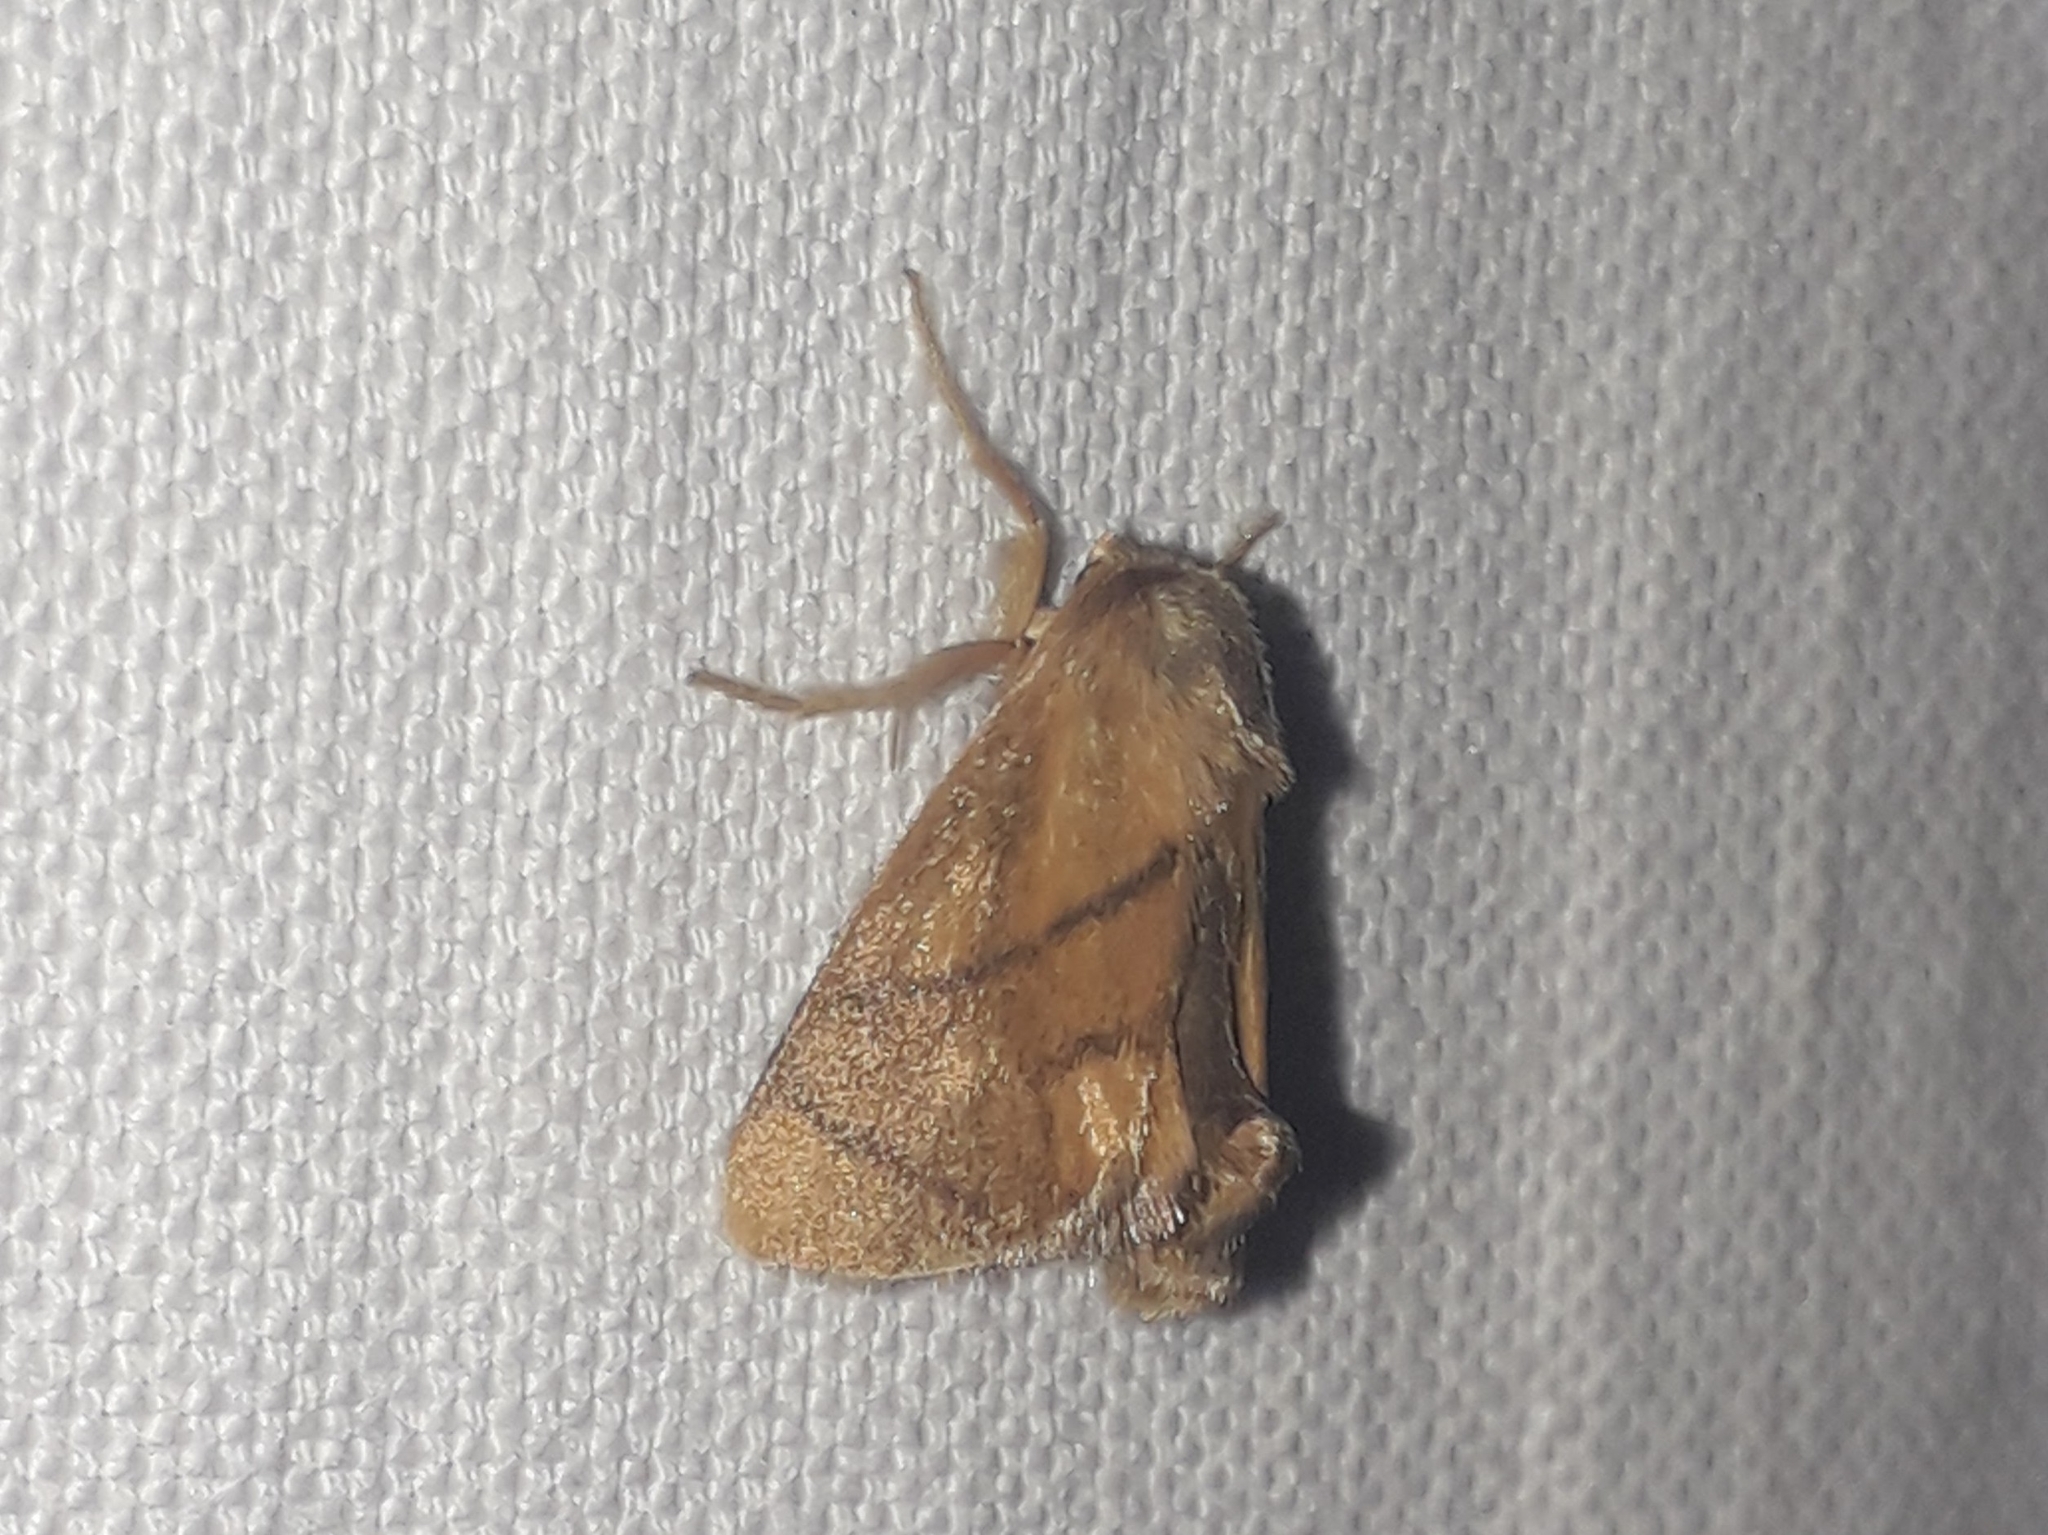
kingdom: Animalia
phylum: Arthropoda
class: Insecta
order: Lepidoptera
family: Limacodidae
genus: Apoda
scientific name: Apoda limacodes
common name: Festoon
